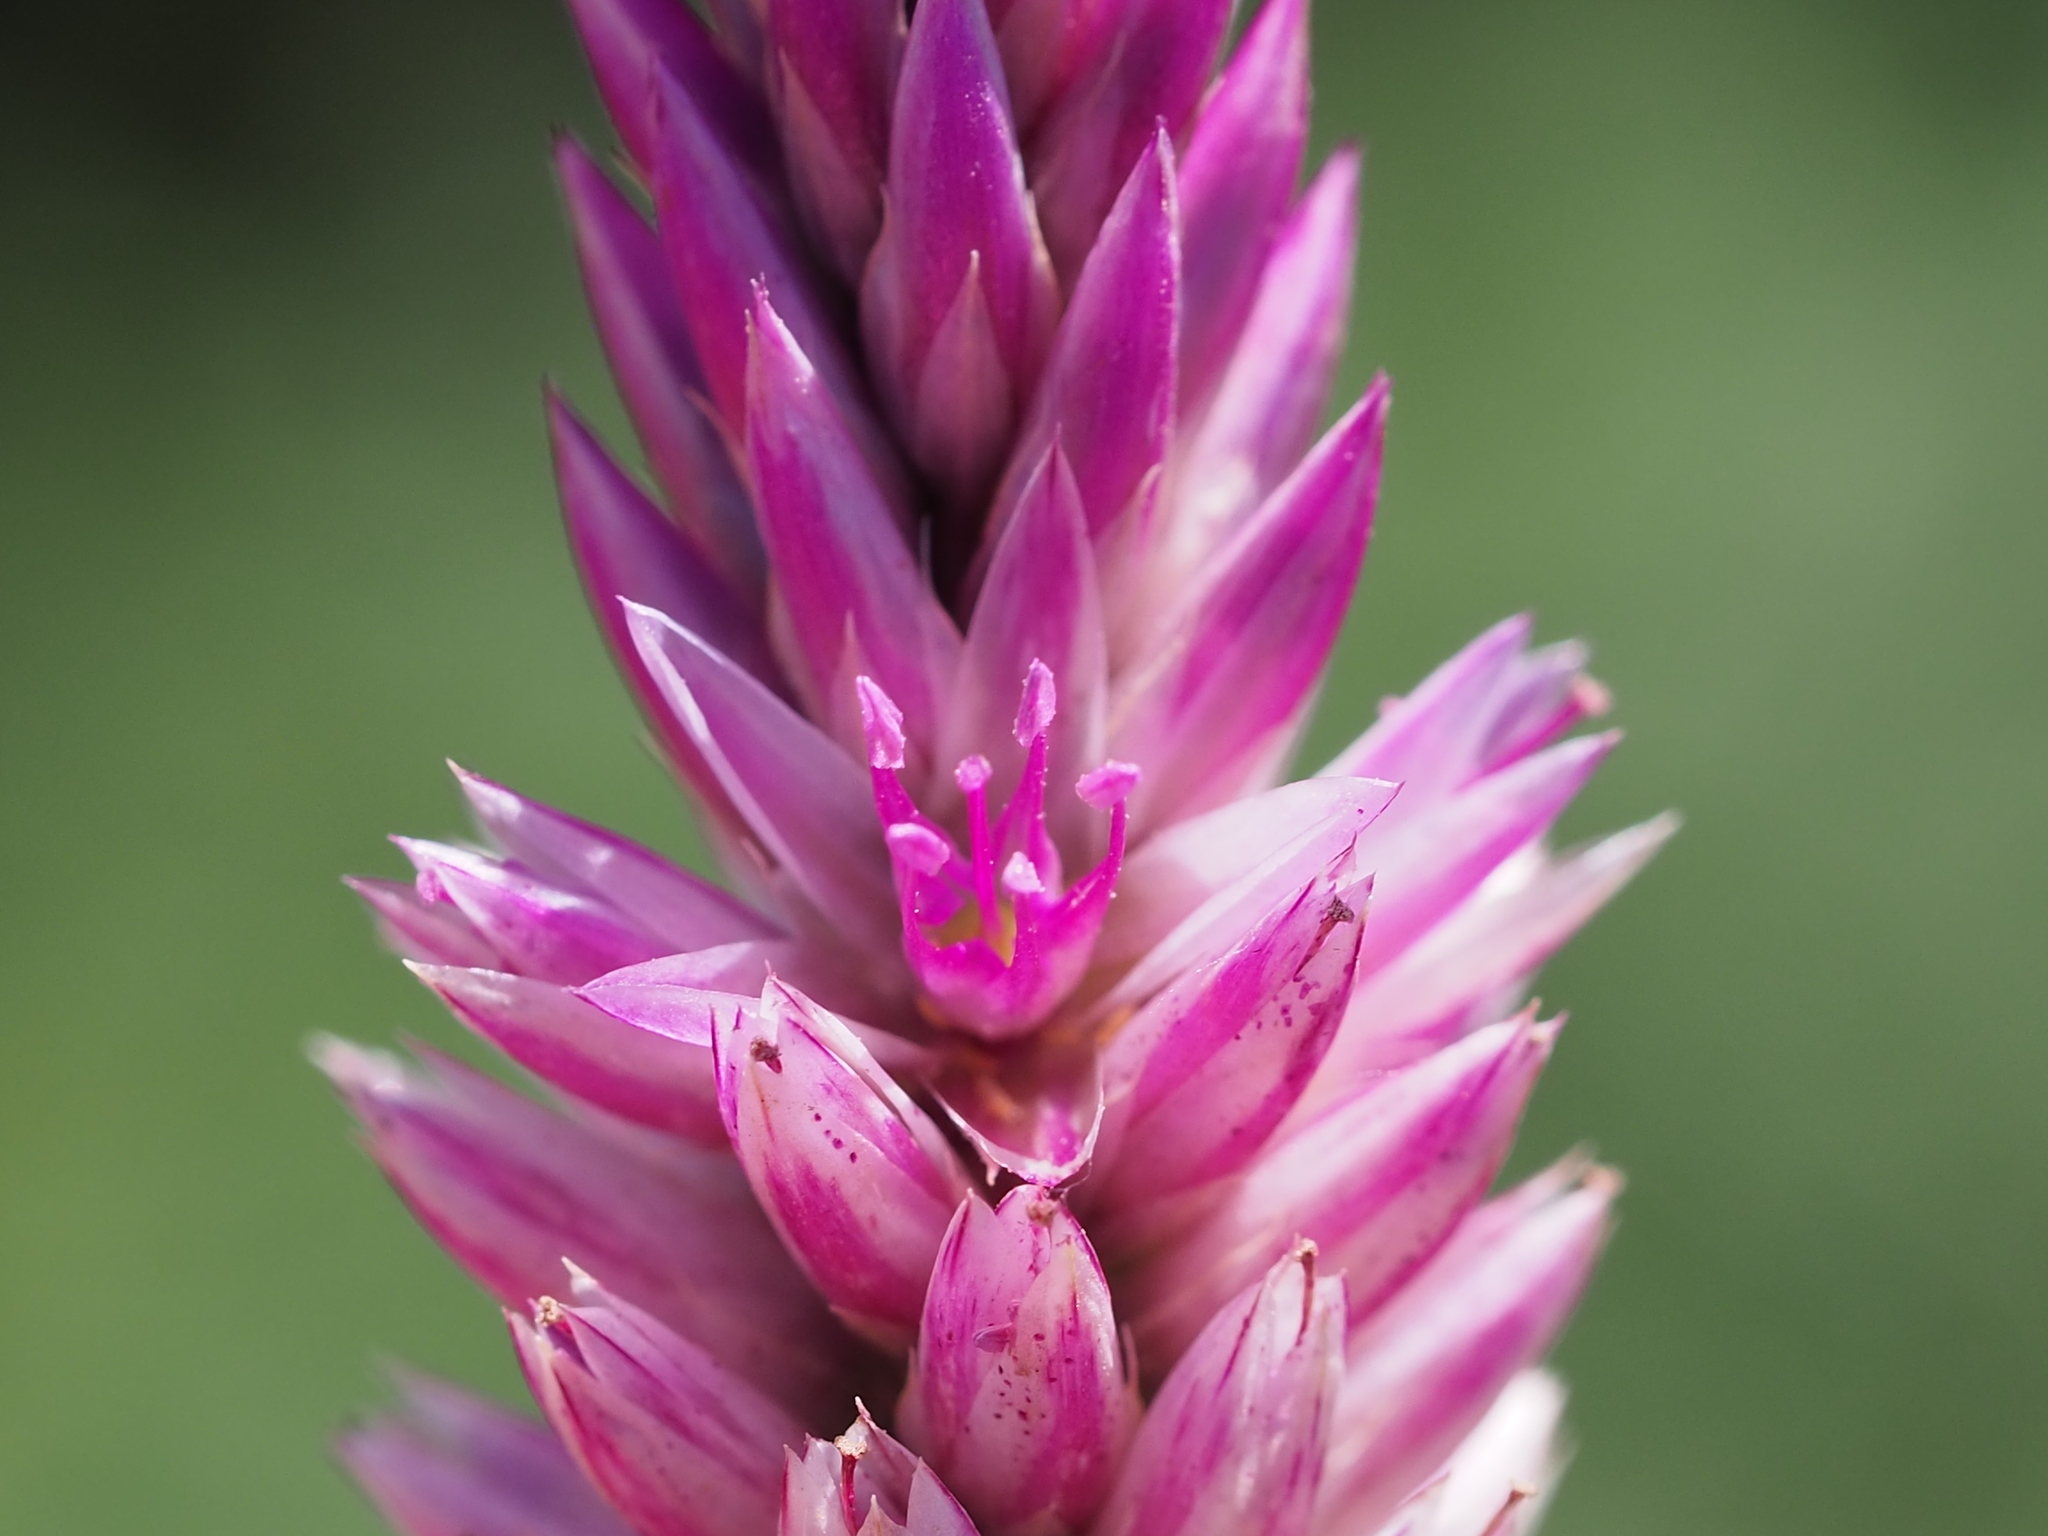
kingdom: Plantae
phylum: Tracheophyta
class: Magnoliopsida
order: Caryophyllales
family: Amaranthaceae
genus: Celosia
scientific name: Celosia argentea
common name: Feather cockscomb
